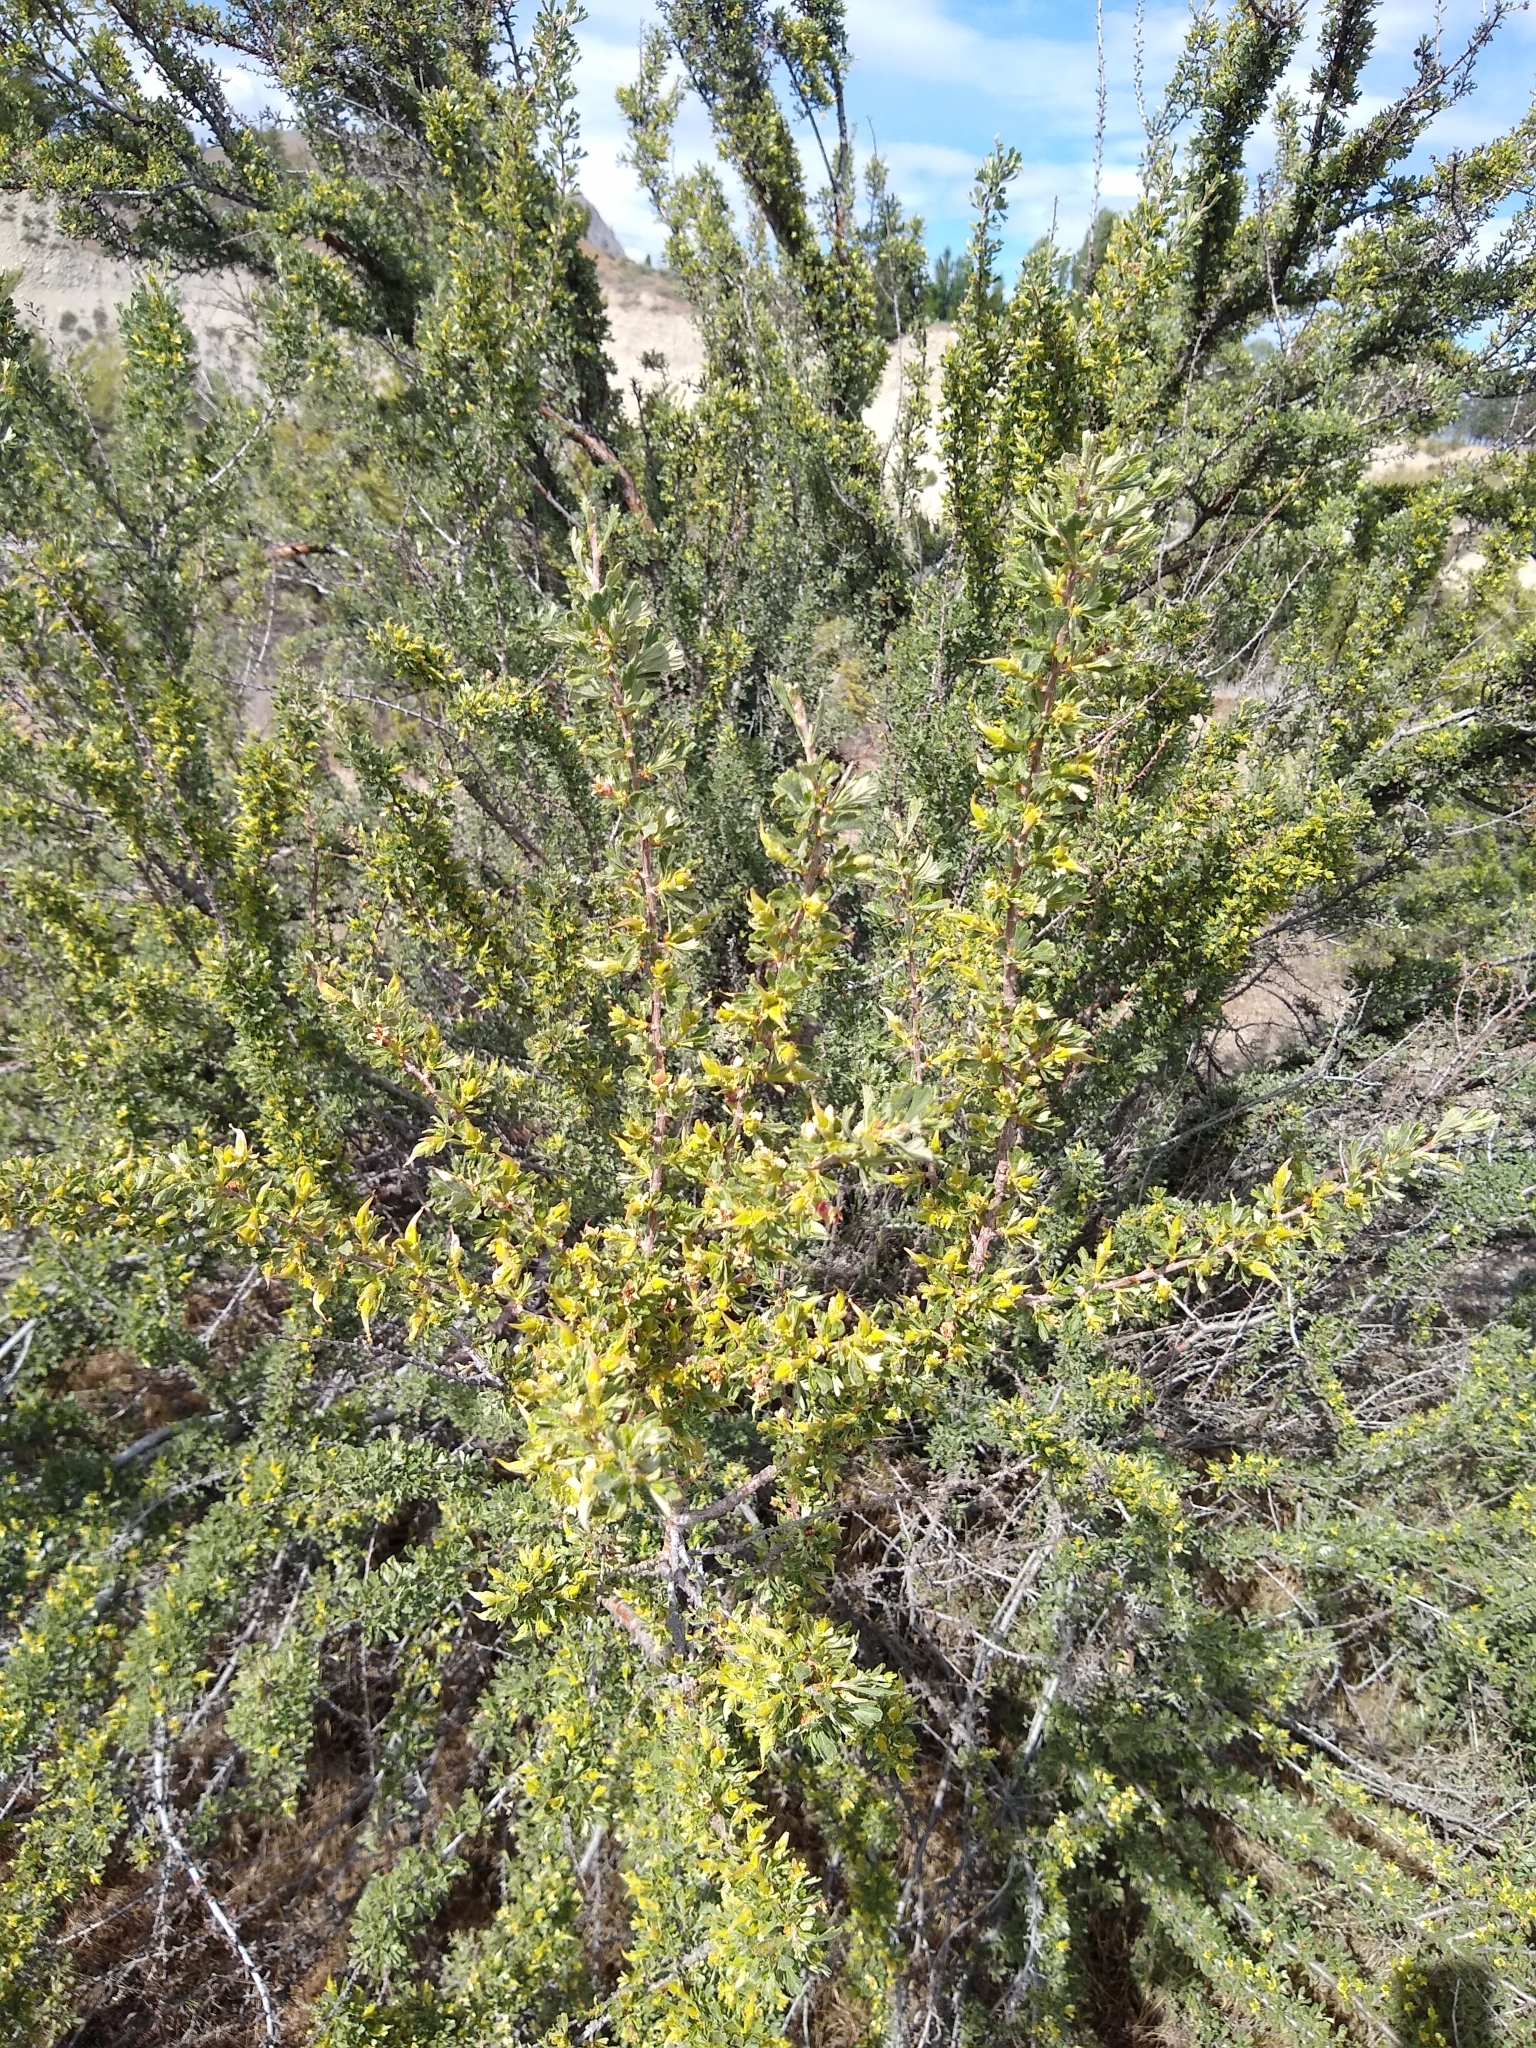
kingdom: Plantae
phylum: Tracheophyta
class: Magnoliopsida
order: Rosales
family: Rosaceae
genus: Purshia
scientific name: Purshia tridentata
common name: Antelope bitterbrush
